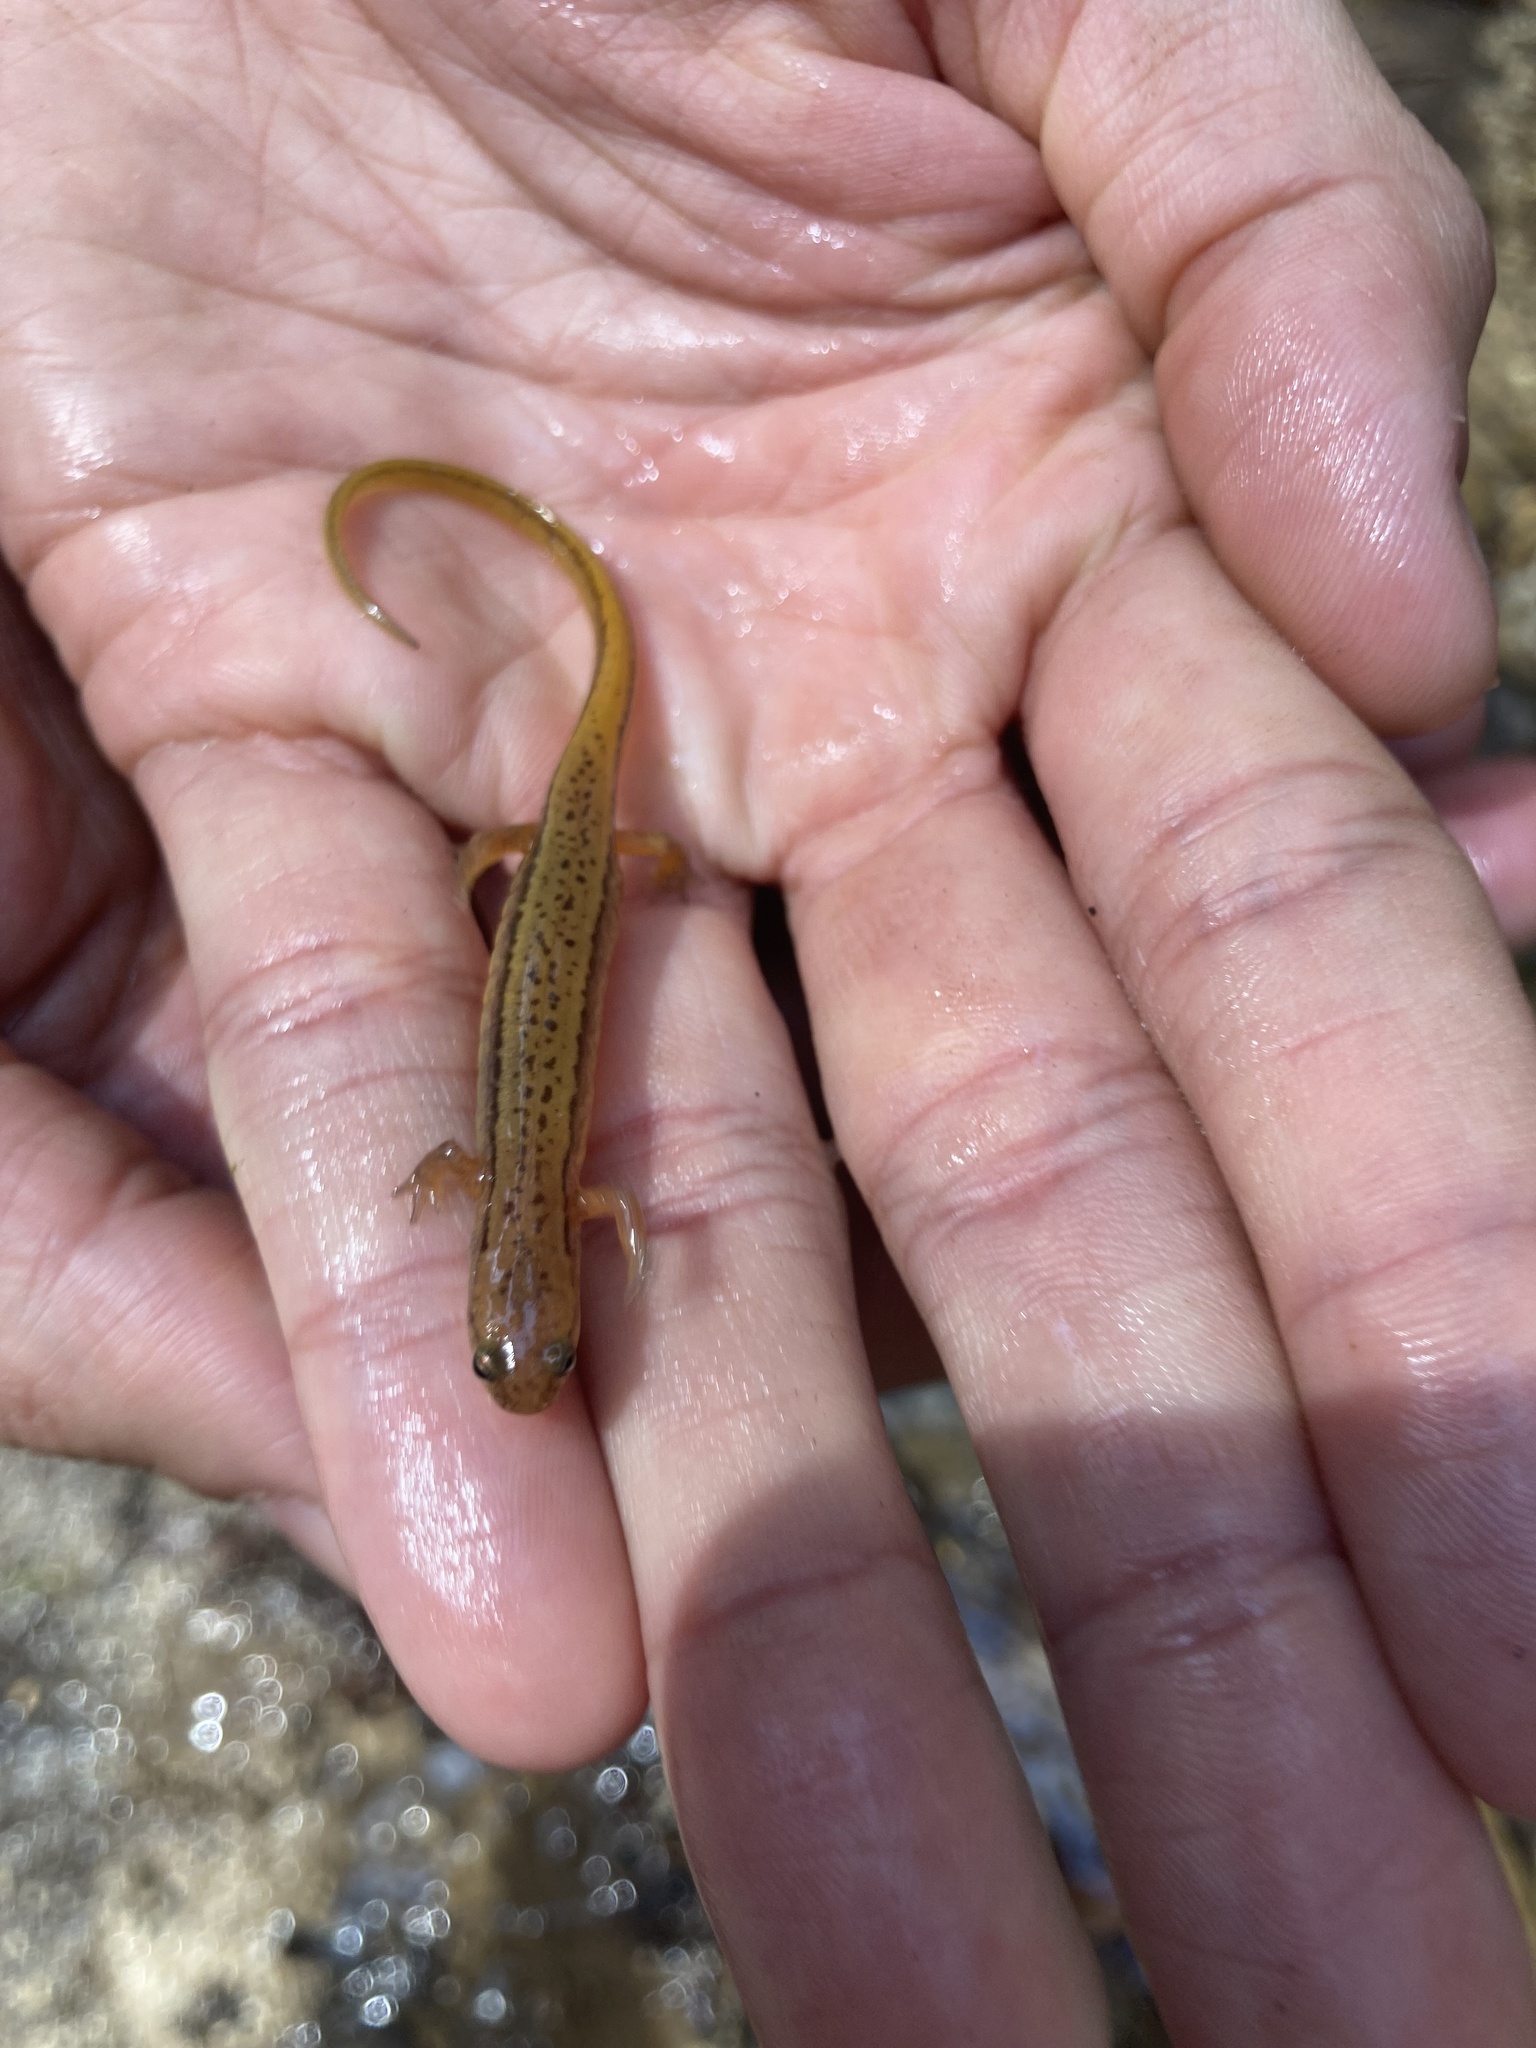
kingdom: Animalia
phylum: Chordata
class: Amphibia
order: Caudata
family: Plethodontidae
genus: Eurycea
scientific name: Eurycea cirrigera
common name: Southern two-lined salamander
